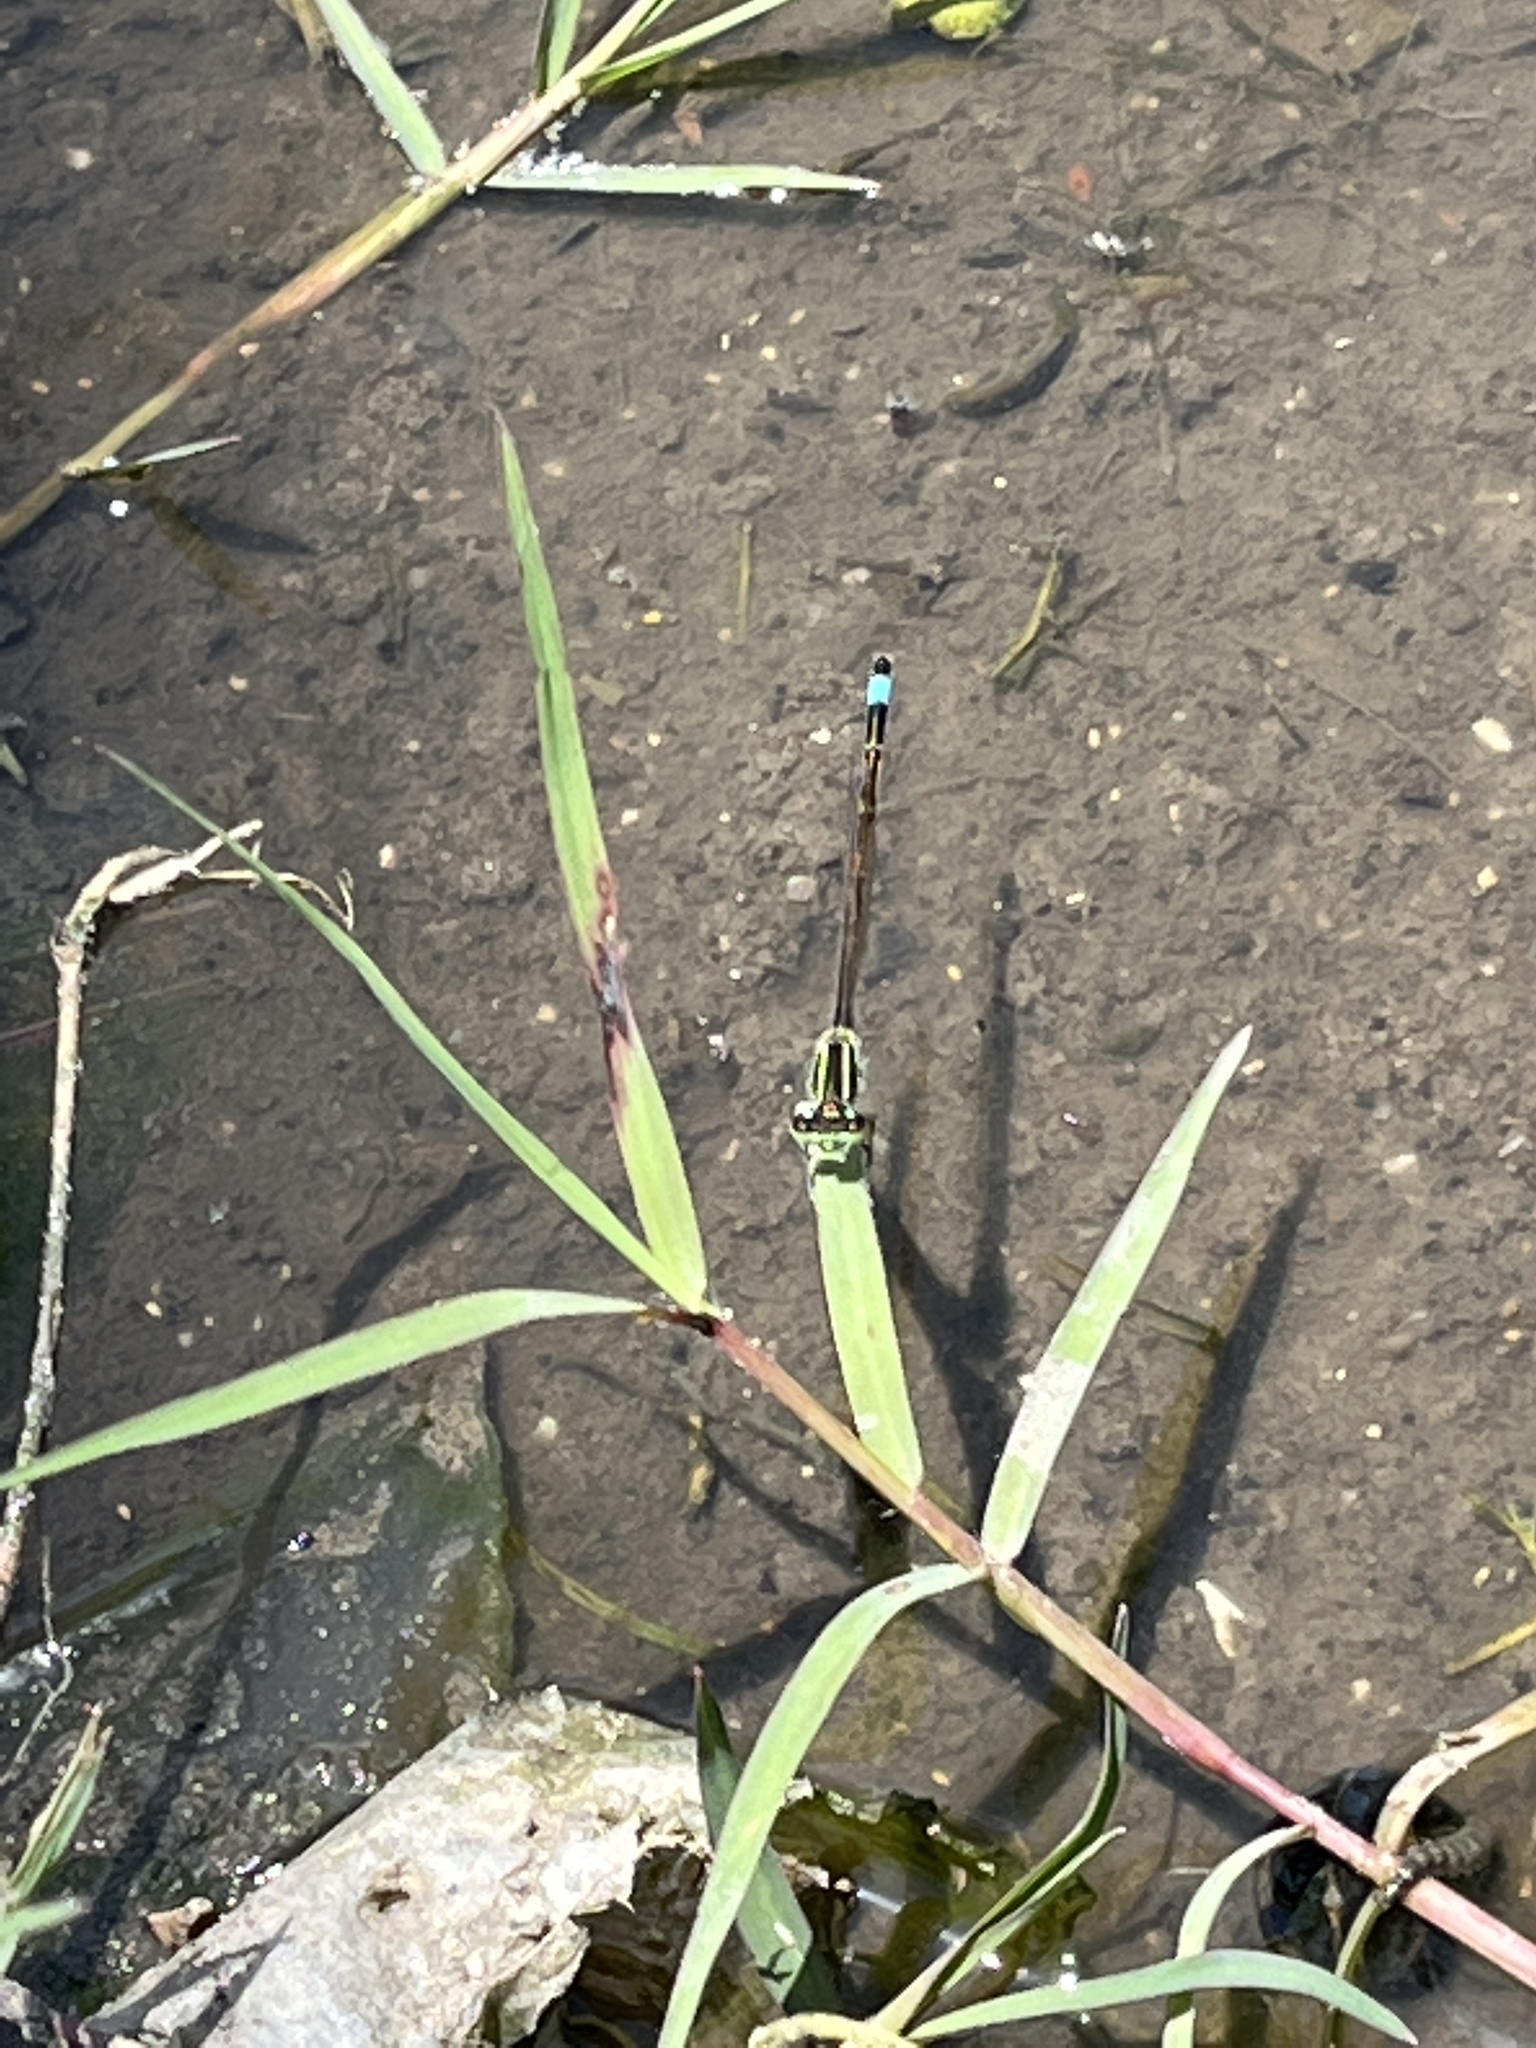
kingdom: Animalia
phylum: Arthropoda
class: Insecta
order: Odonata
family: Coenagrionidae
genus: Ischnura
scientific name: Ischnura ramburii
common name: Rambur's forktail
